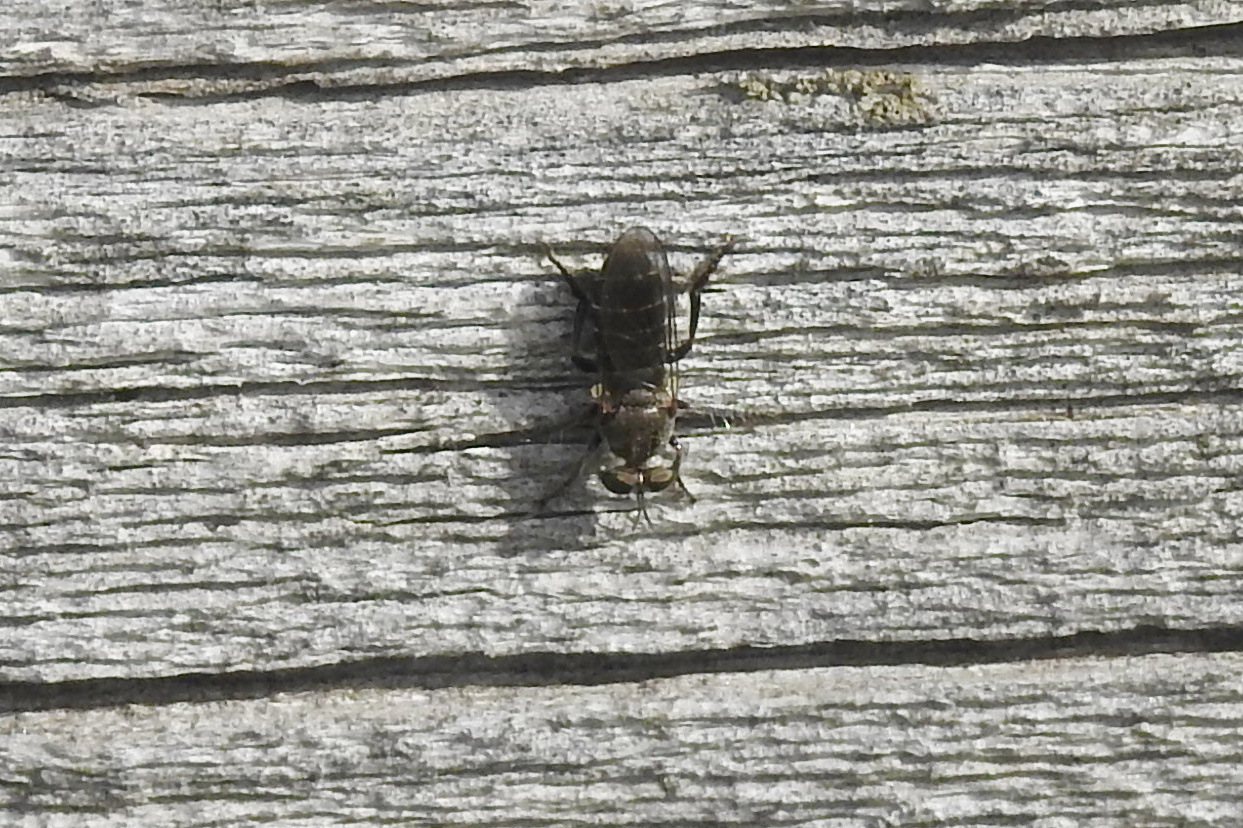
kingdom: Animalia
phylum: Arthropoda
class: Insecta
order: Diptera
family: Asilidae
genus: Atomosia
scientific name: Atomosia
